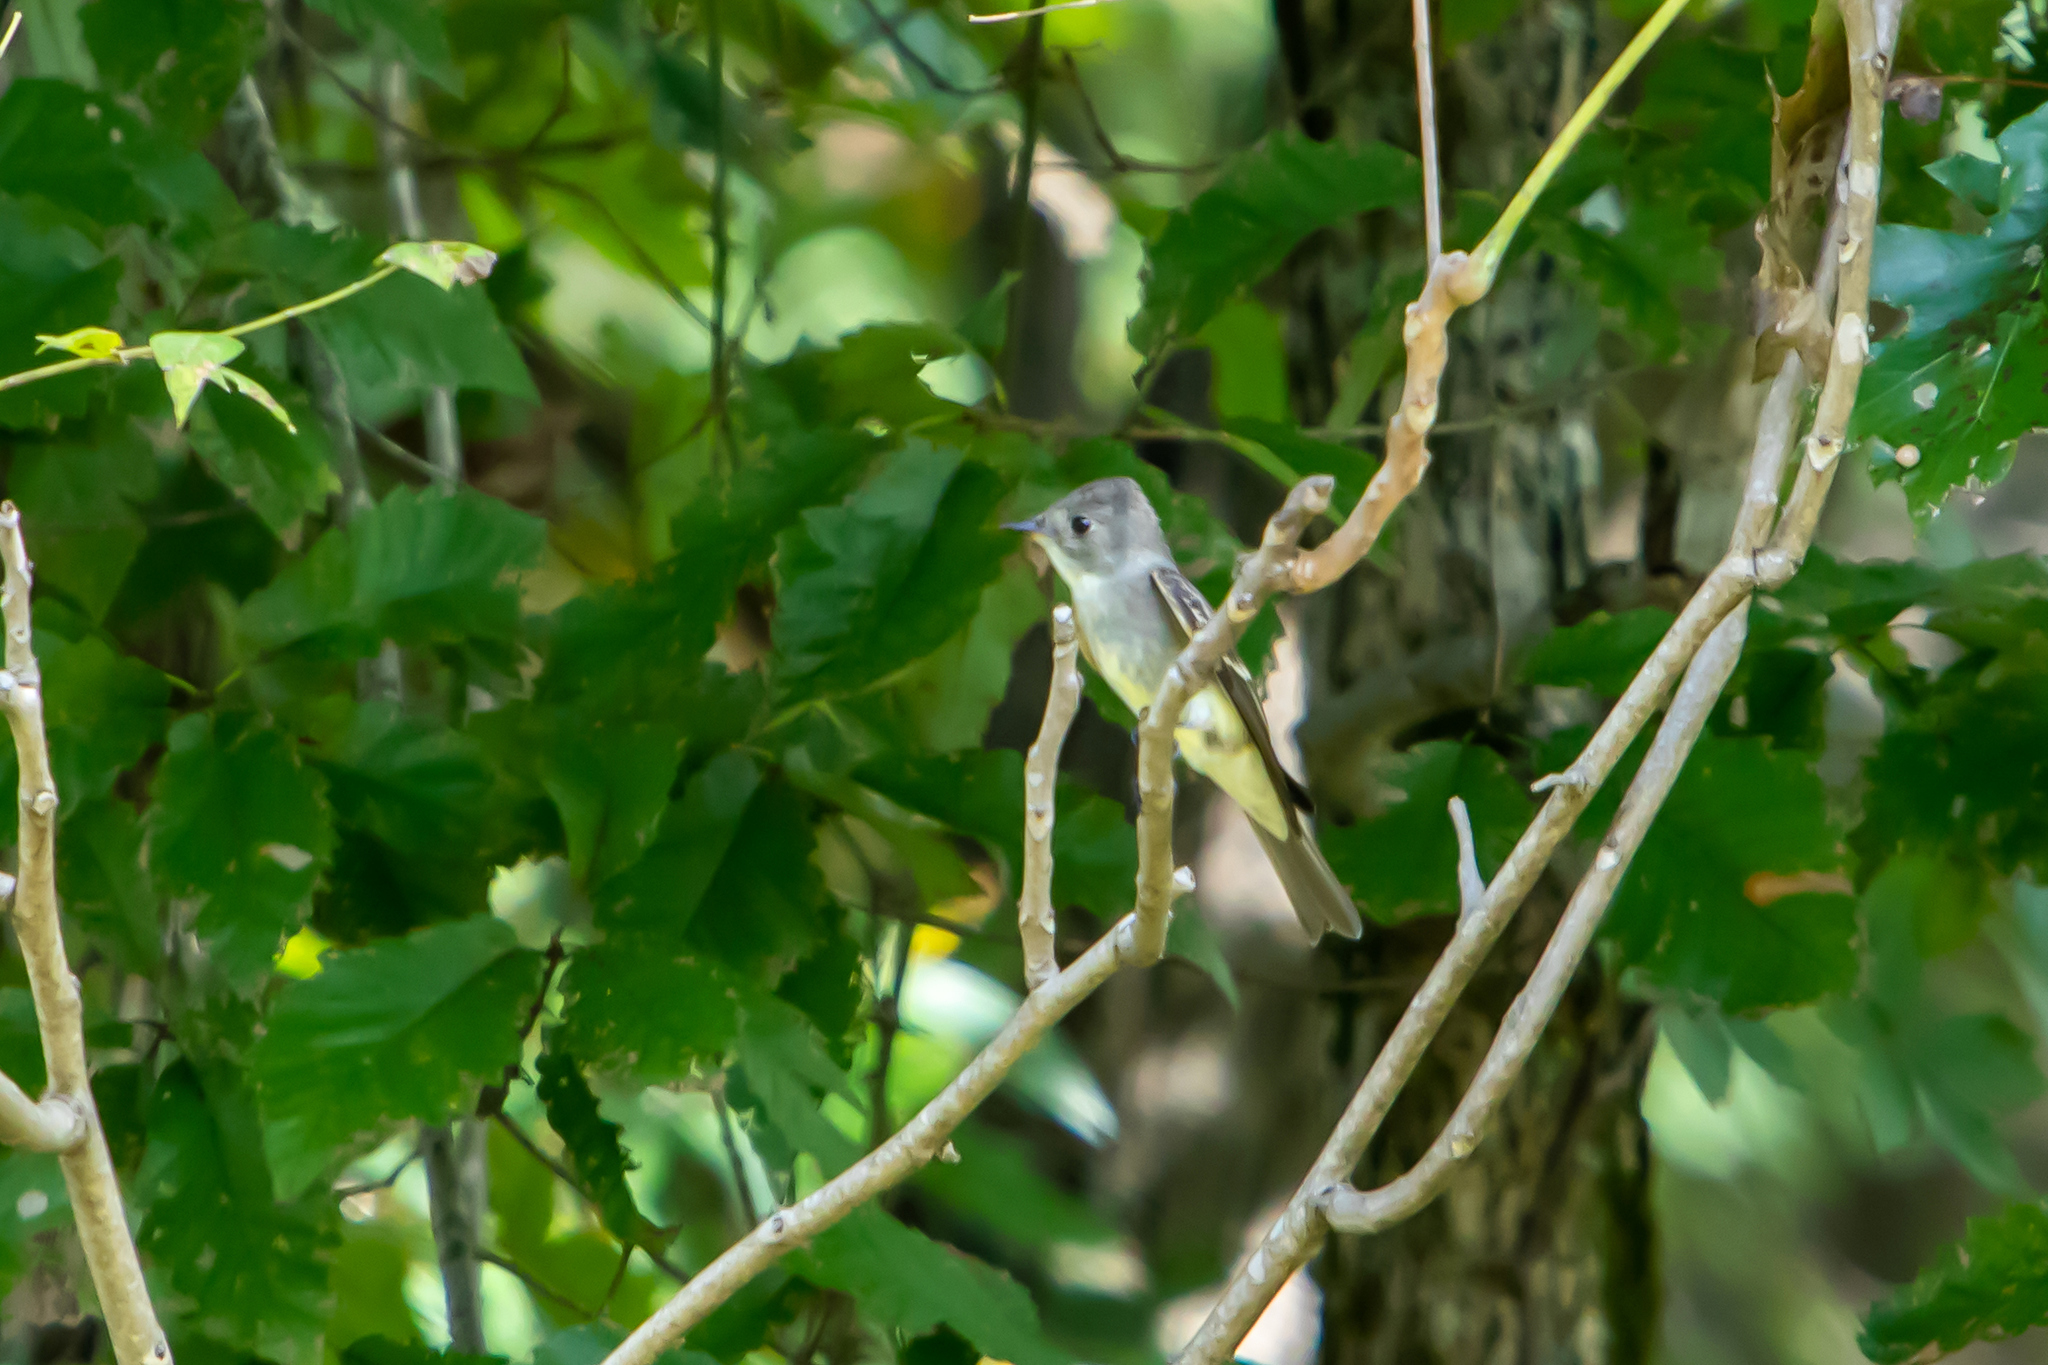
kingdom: Animalia
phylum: Chordata
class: Aves
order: Passeriformes
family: Tyrannidae
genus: Contopus
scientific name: Contopus virens
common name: Eastern wood-pewee
